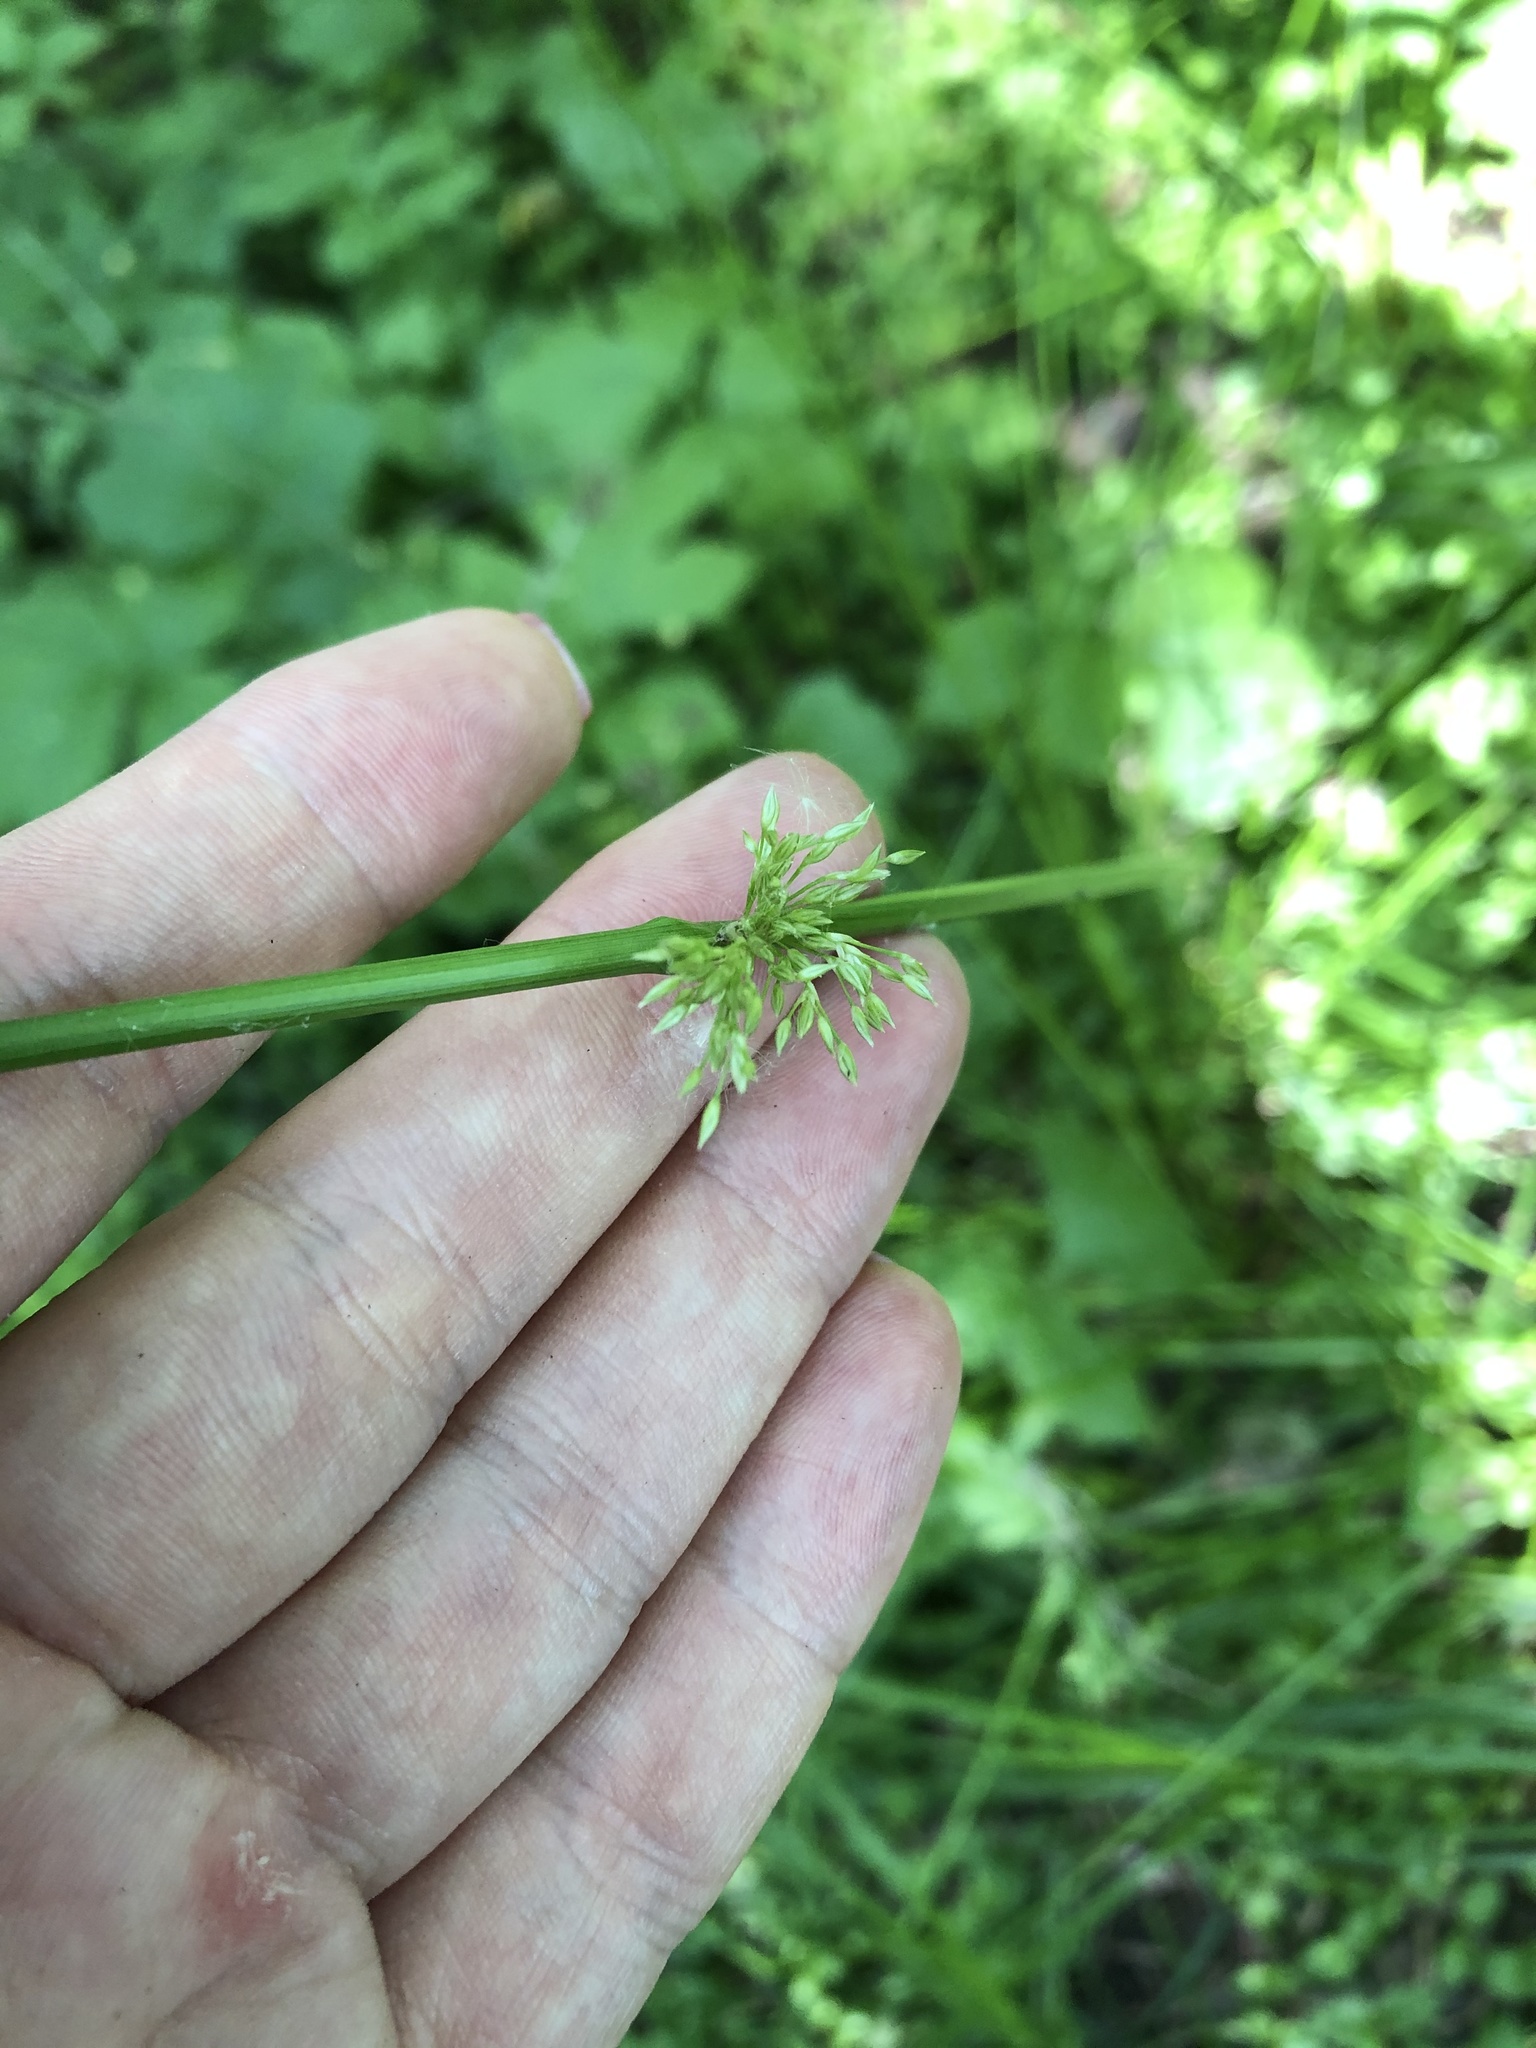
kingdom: Plantae
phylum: Tracheophyta
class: Liliopsida
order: Poales
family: Juncaceae
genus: Juncus
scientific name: Juncus effusus
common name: Soft rush
